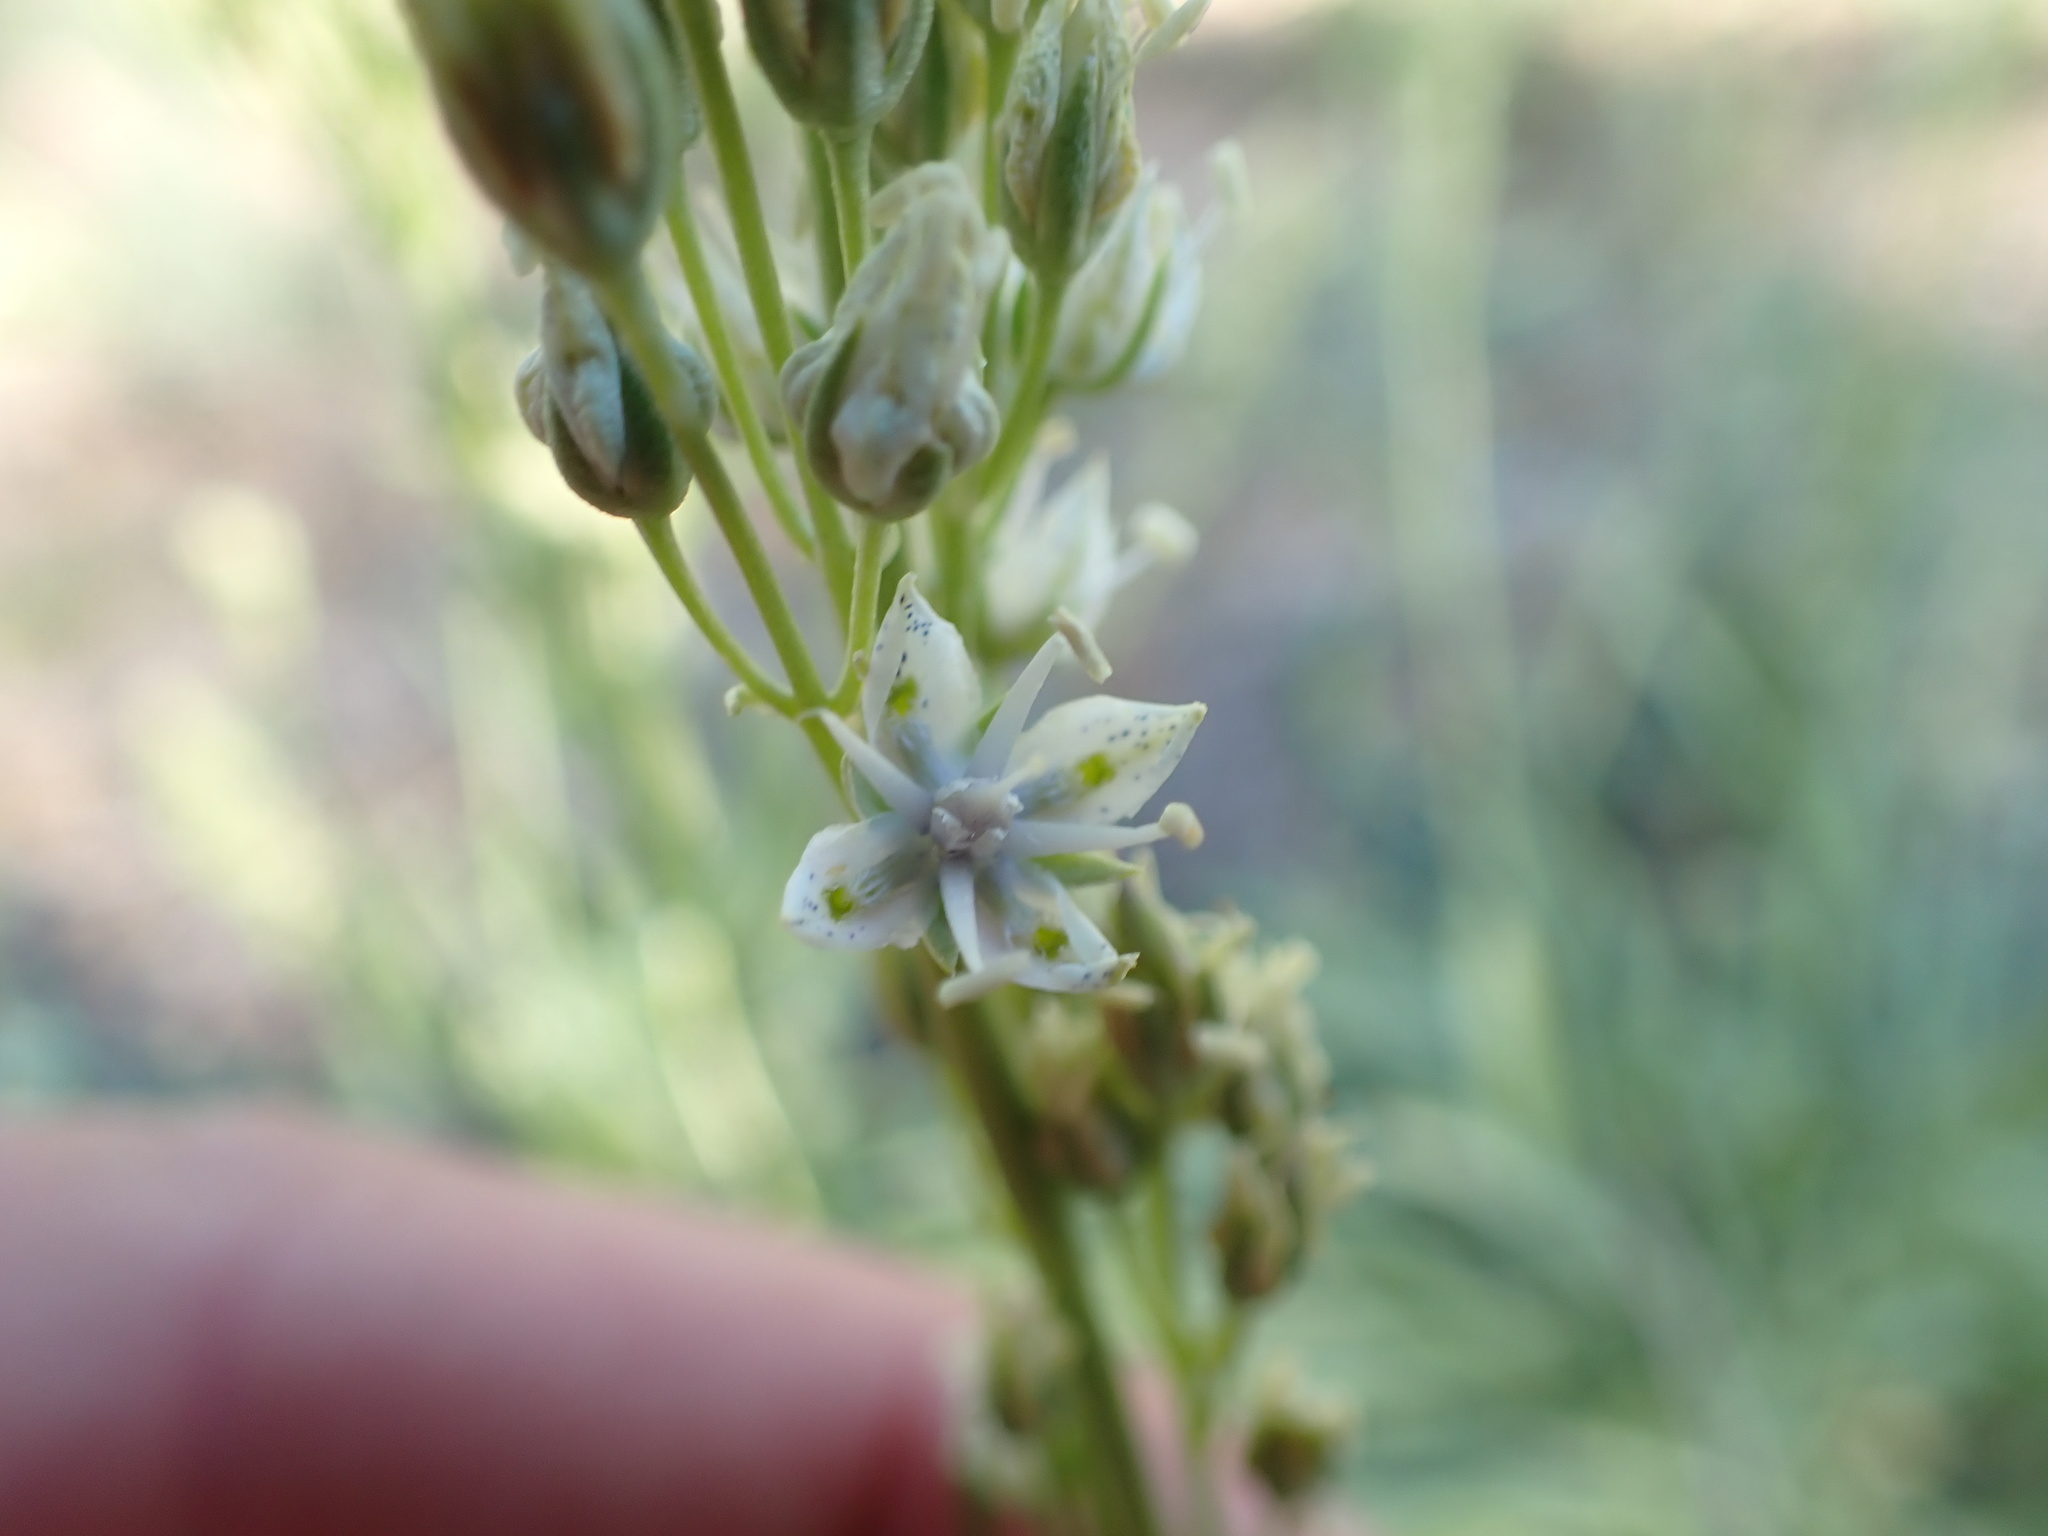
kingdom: Plantae
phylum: Tracheophyta
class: Magnoliopsida
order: Gentianales
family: Gentianaceae
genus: Frasera
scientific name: Frasera albicaulis
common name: Cusick's frasera
